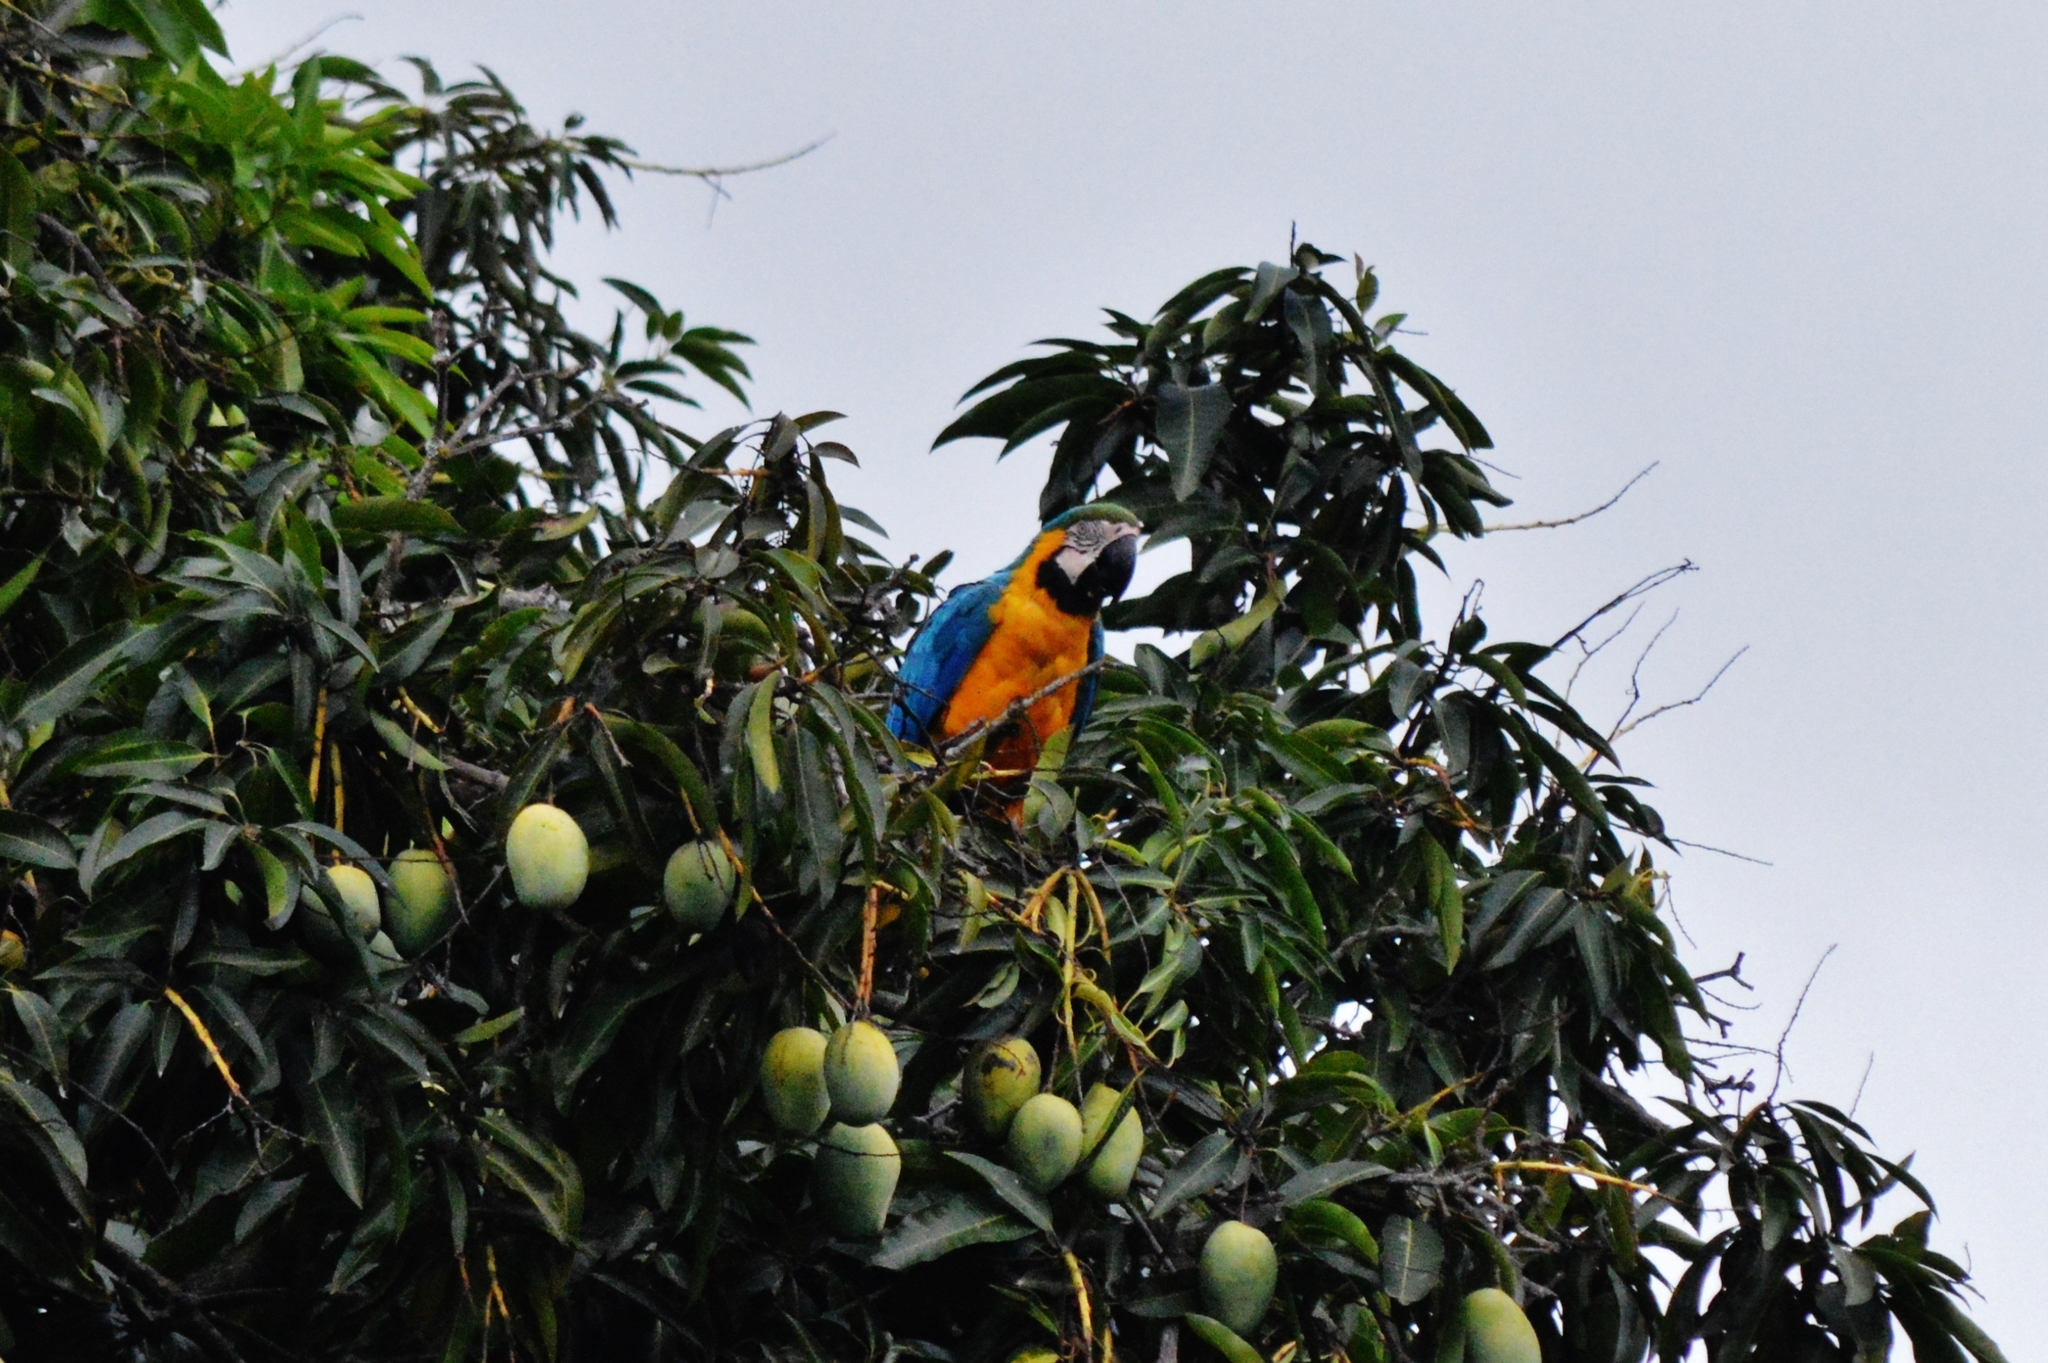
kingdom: Animalia
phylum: Chordata
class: Aves
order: Psittaciformes
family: Psittacidae
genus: Ara
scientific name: Ara ararauna
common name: Blue-and-yellow macaw
